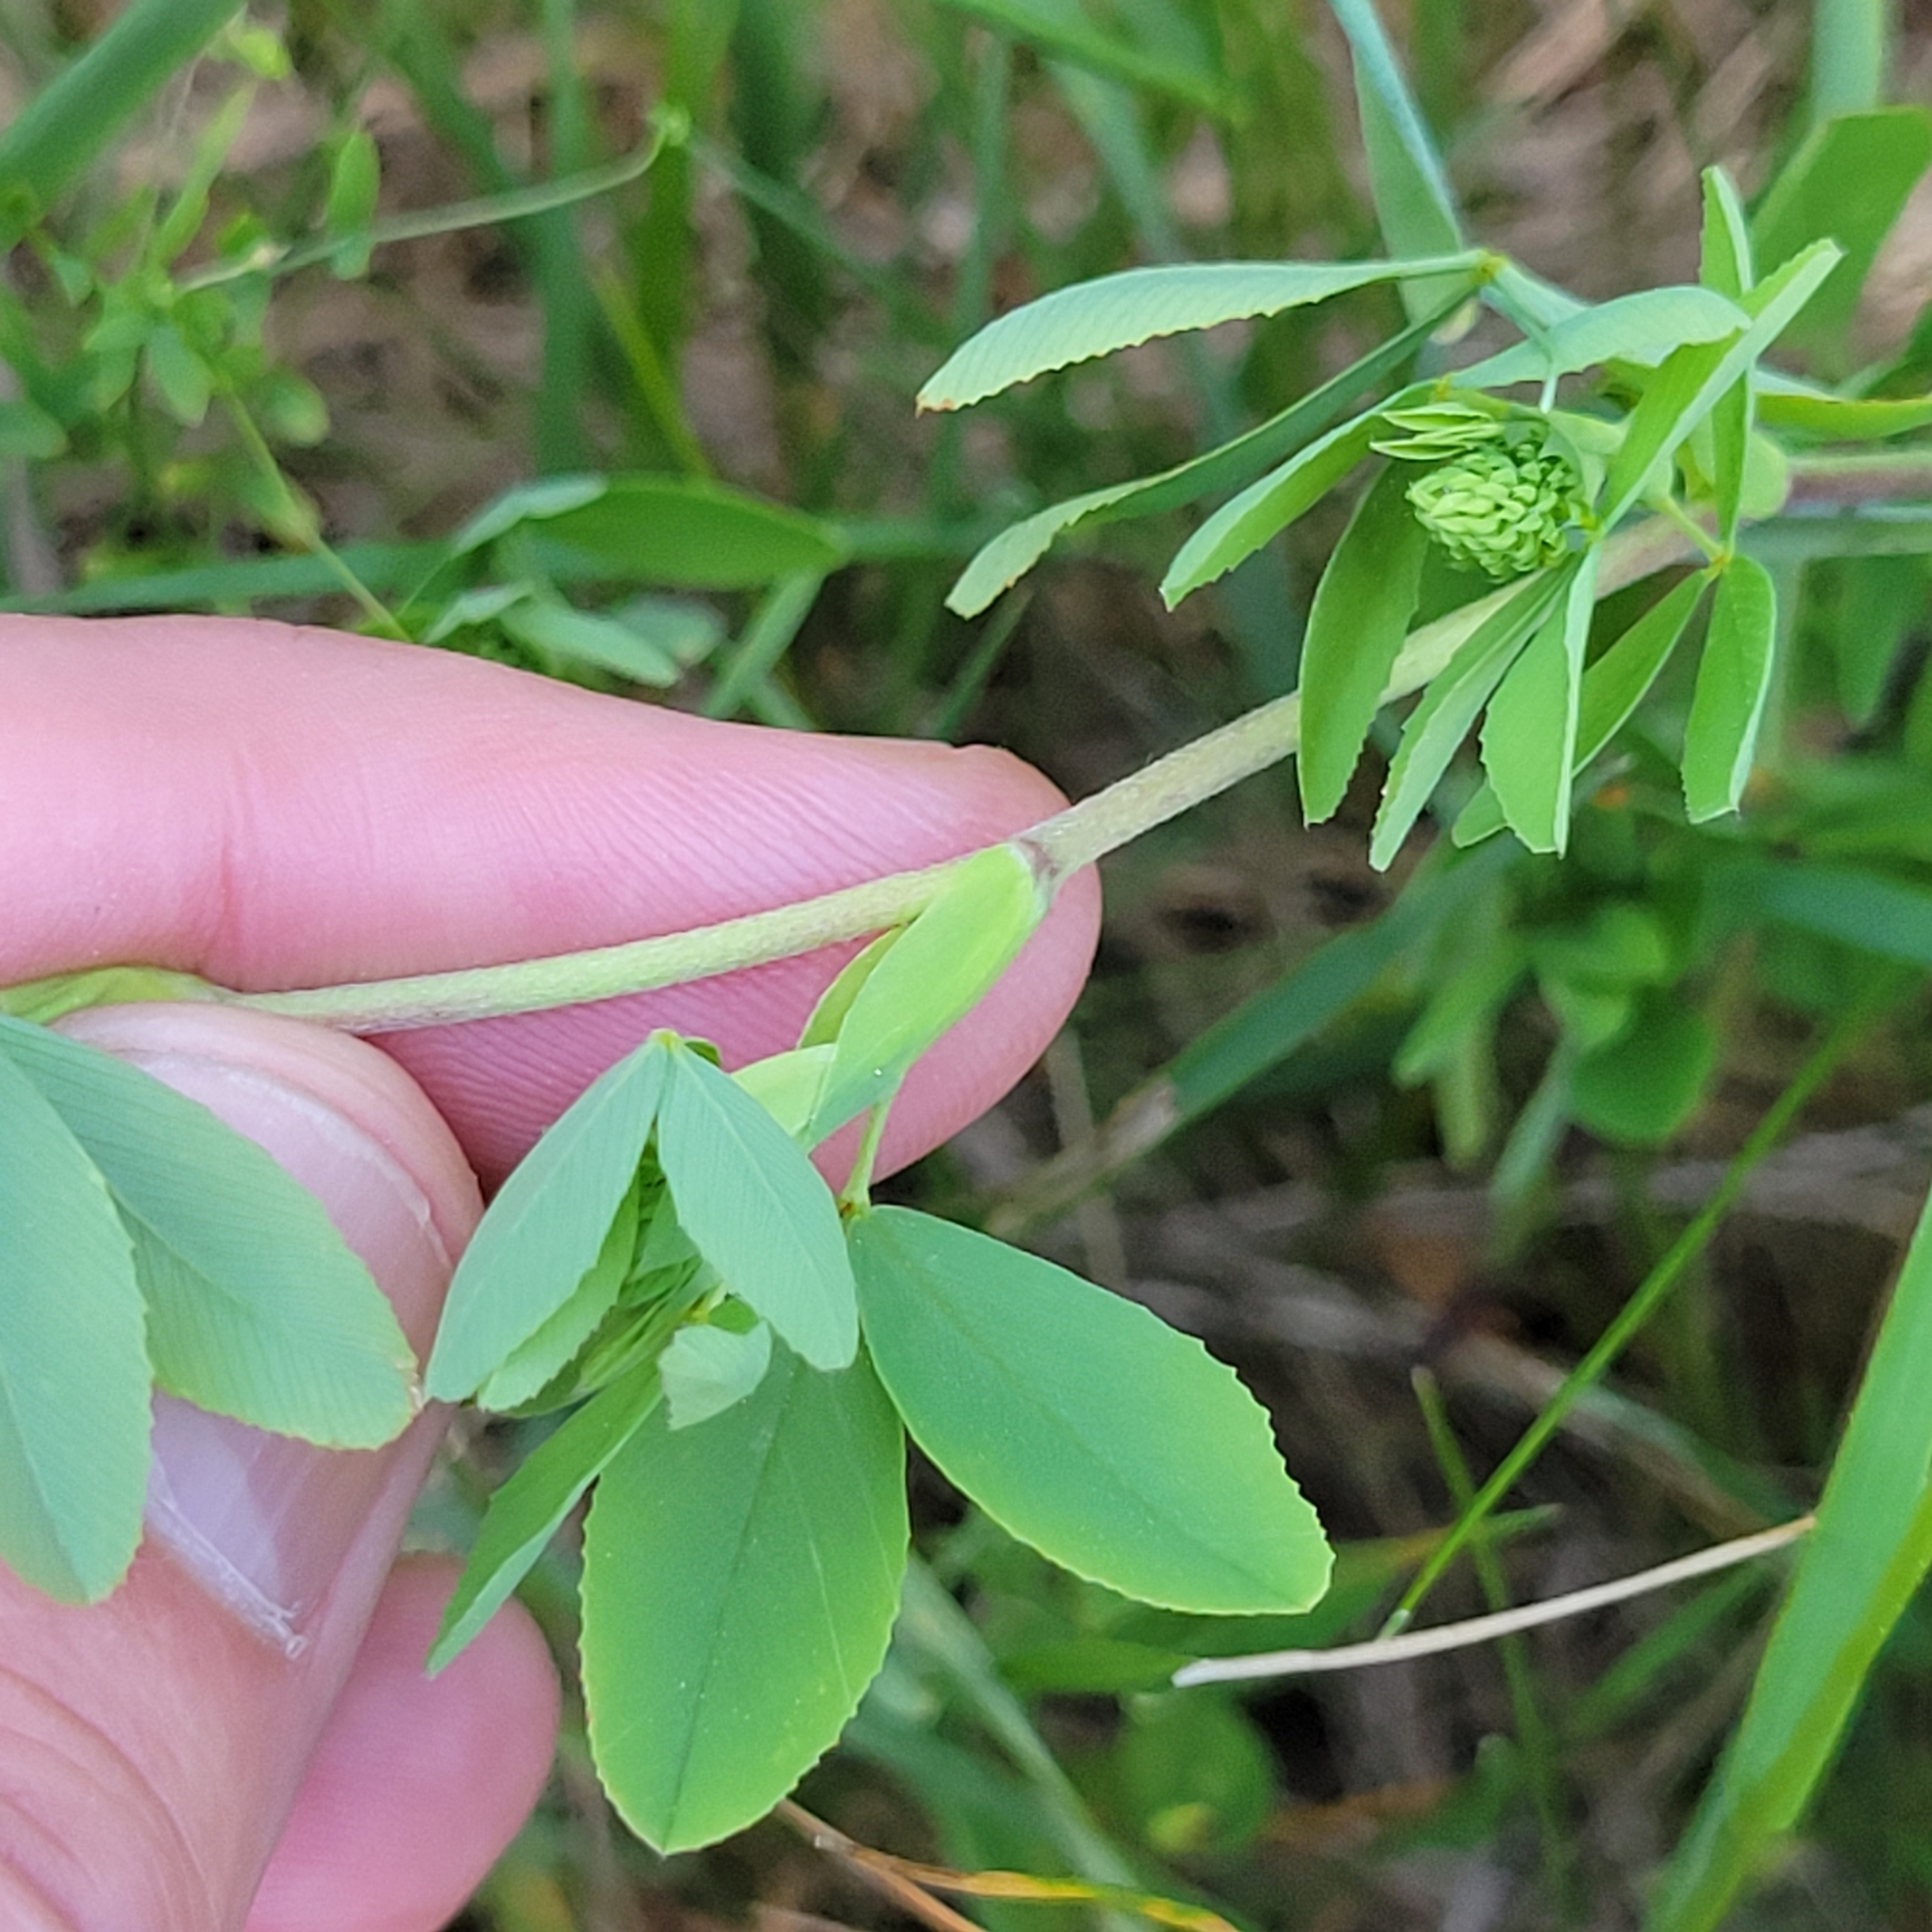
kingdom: Plantae
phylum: Tracheophyta
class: Magnoliopsida
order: Fabales
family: Fabaceae
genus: Trifolium
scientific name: Trifolium aureum
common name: Golden clover
